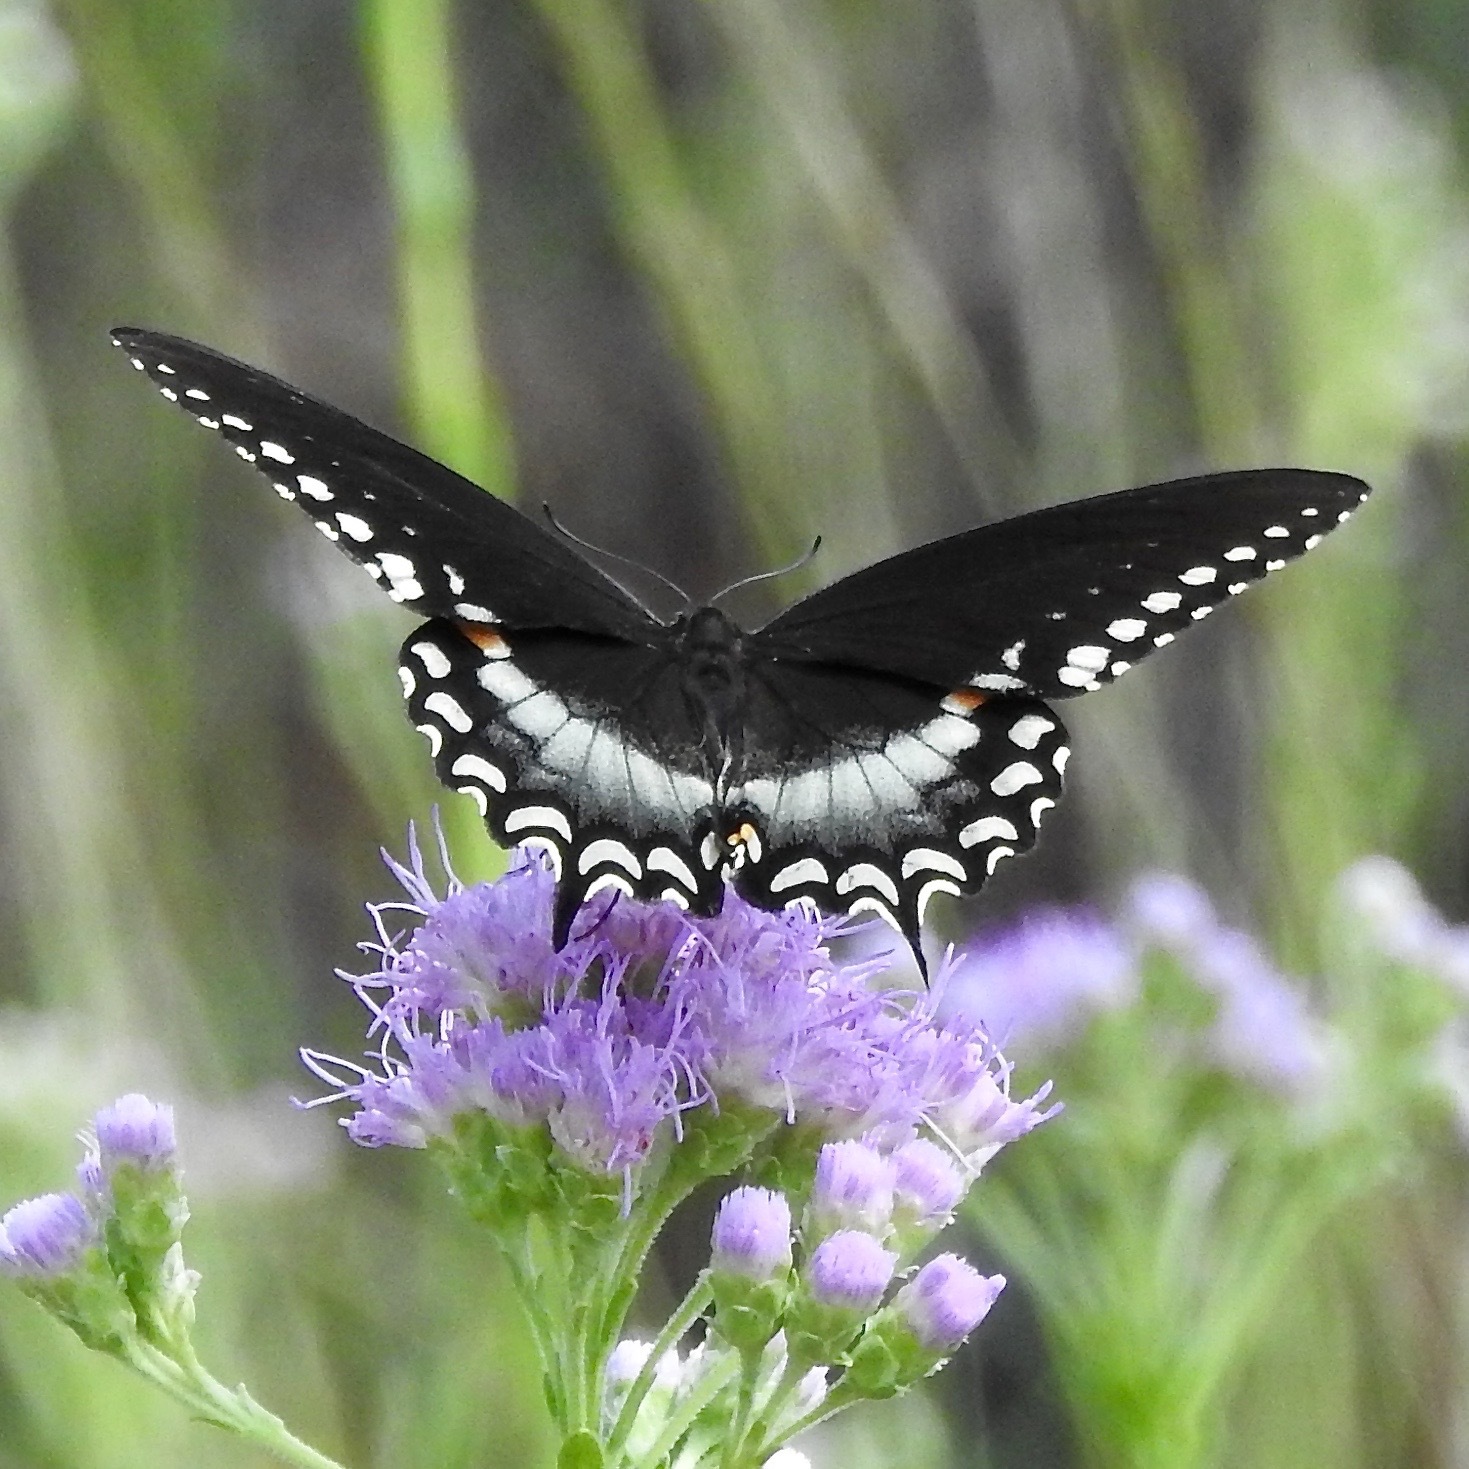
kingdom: Animalia
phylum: Arthropoda
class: Insecta
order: Lepidoptera
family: Papilionidae
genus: Papilio
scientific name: Papilio troilus
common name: Spicebush swallowtail
